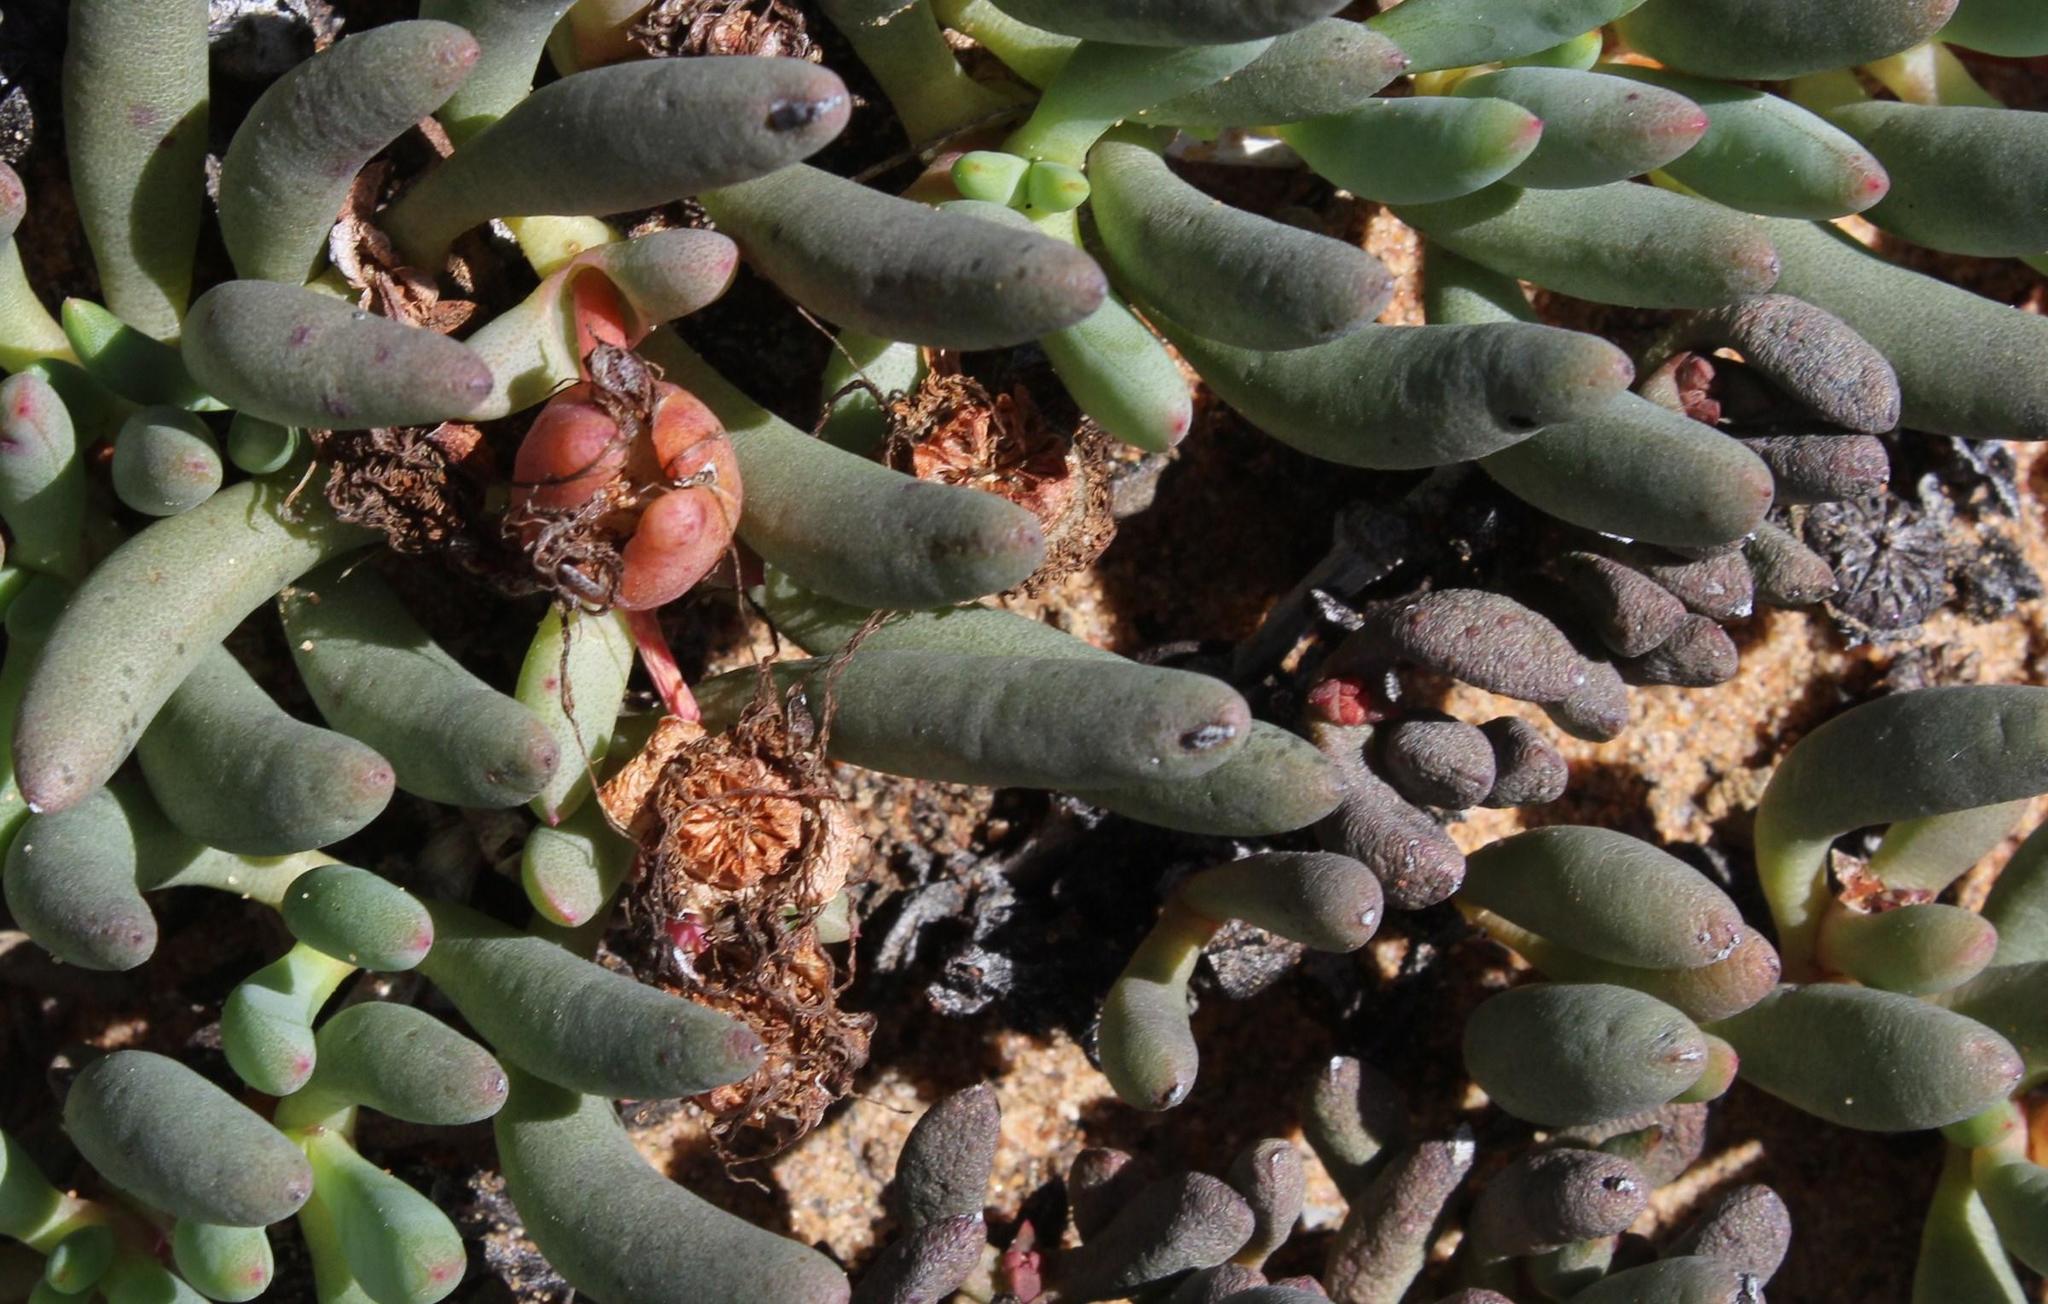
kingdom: Plantae
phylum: Tracheophyta
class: Magnoliopsida
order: Caryophyllales
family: Aizoaceae
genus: Jordaaniella
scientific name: Jordaaniella cuprea
